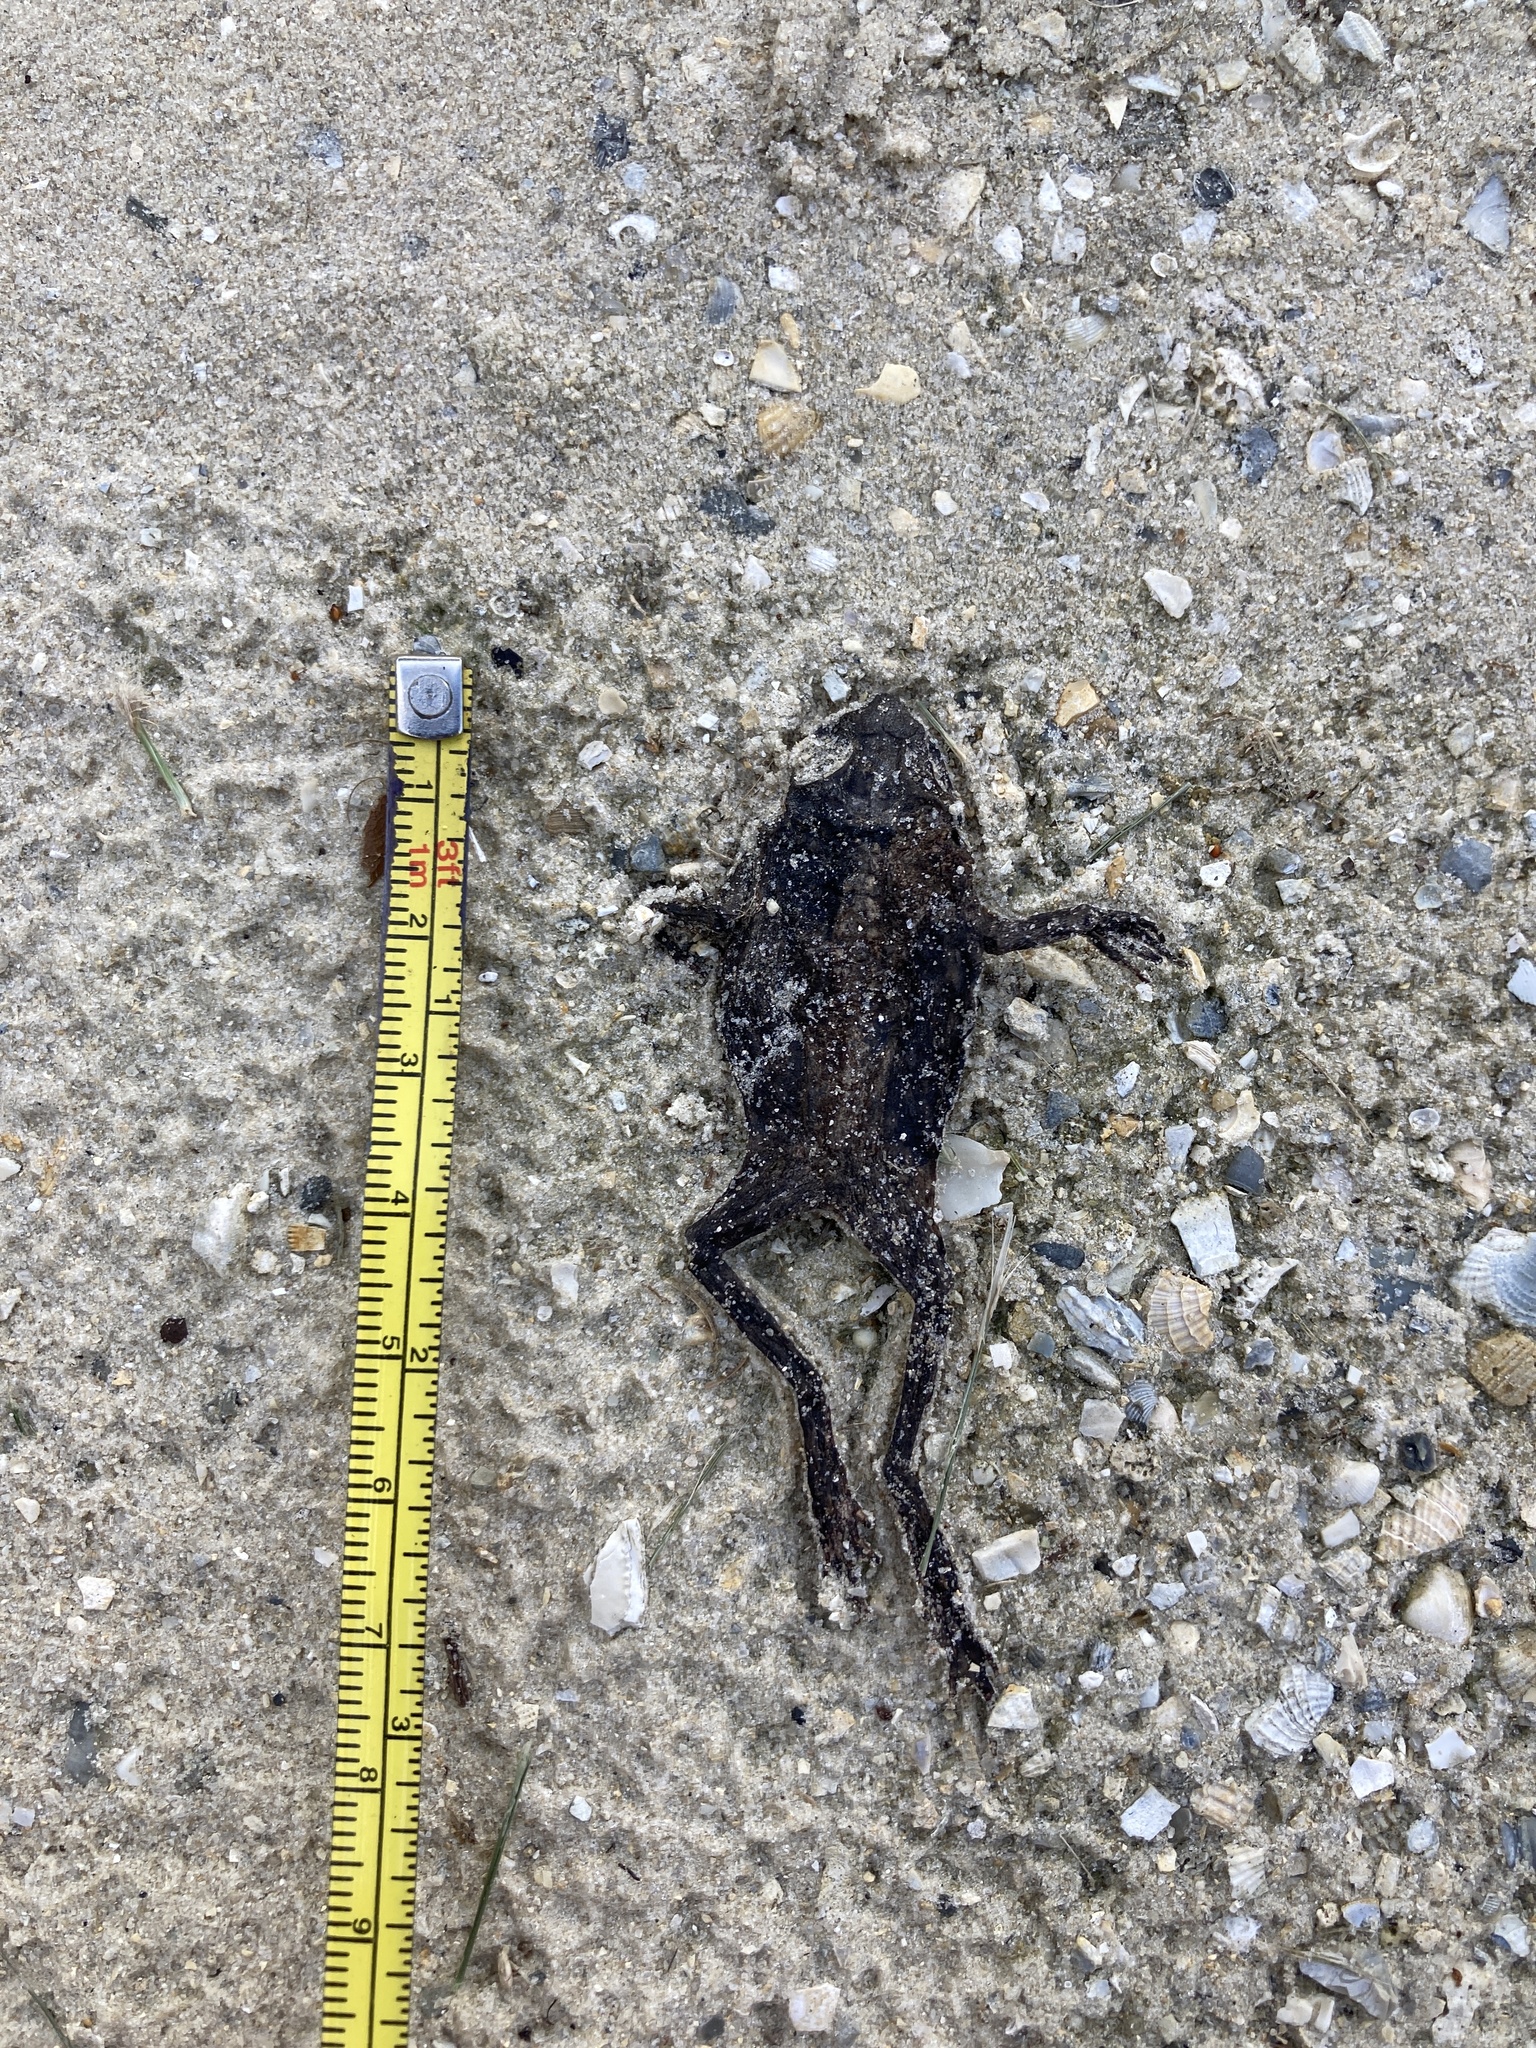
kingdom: Animalia
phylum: Chordata
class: Amphibia
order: Anura
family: Bufonidae
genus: Rhinella
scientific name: Rhinella marina
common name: Cane toad
